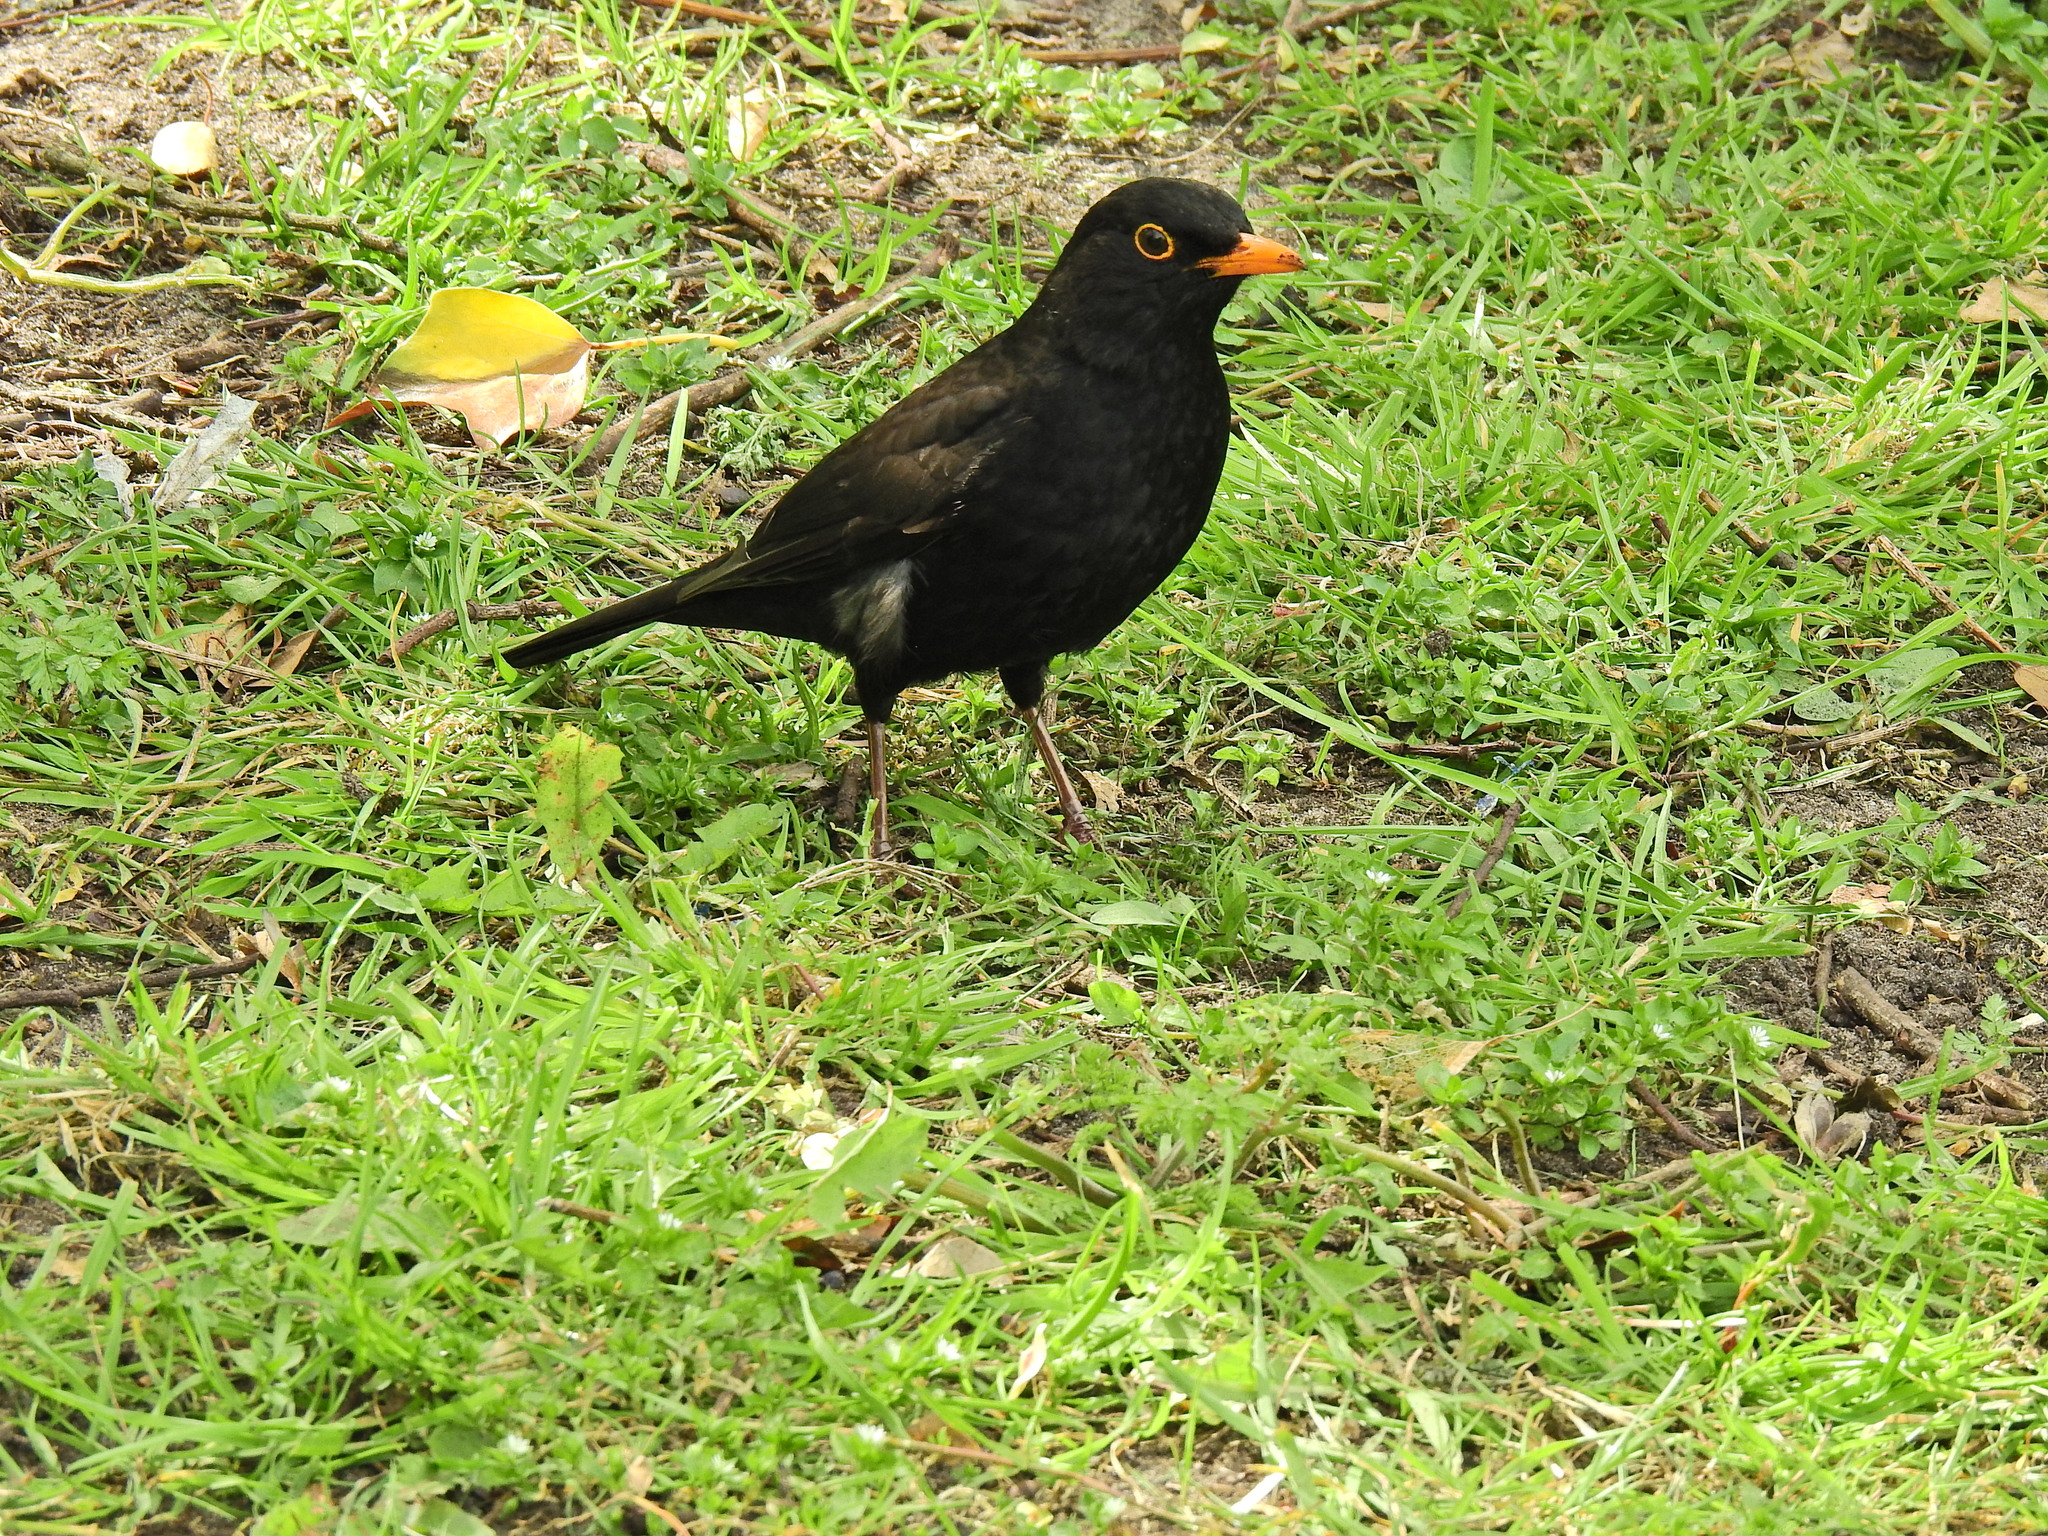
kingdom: Animalia
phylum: Chordata
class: Aves
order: Passeriformes
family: Turdidae
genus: Turdus
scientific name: Turdus merula
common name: Common blackbird
